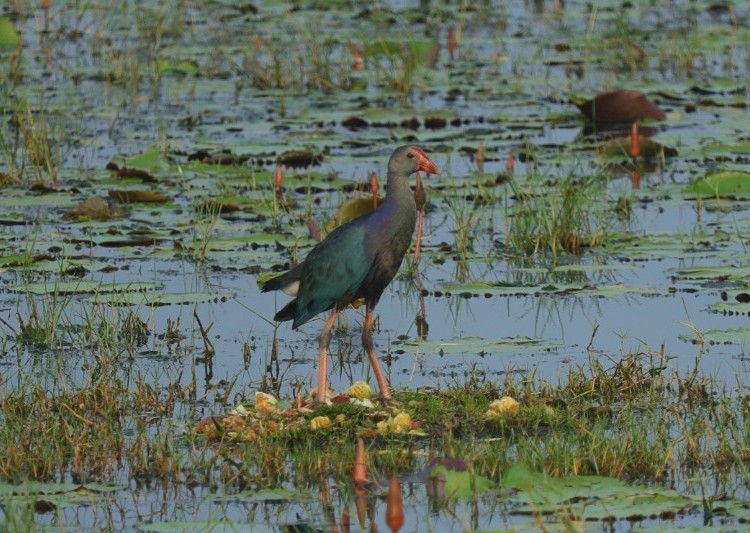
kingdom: Animalia
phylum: Chordata
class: Aves
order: Gruiformes
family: Rallidae
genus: Porphyrio
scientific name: Porphyrio porphyrio
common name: Purple swamphen
